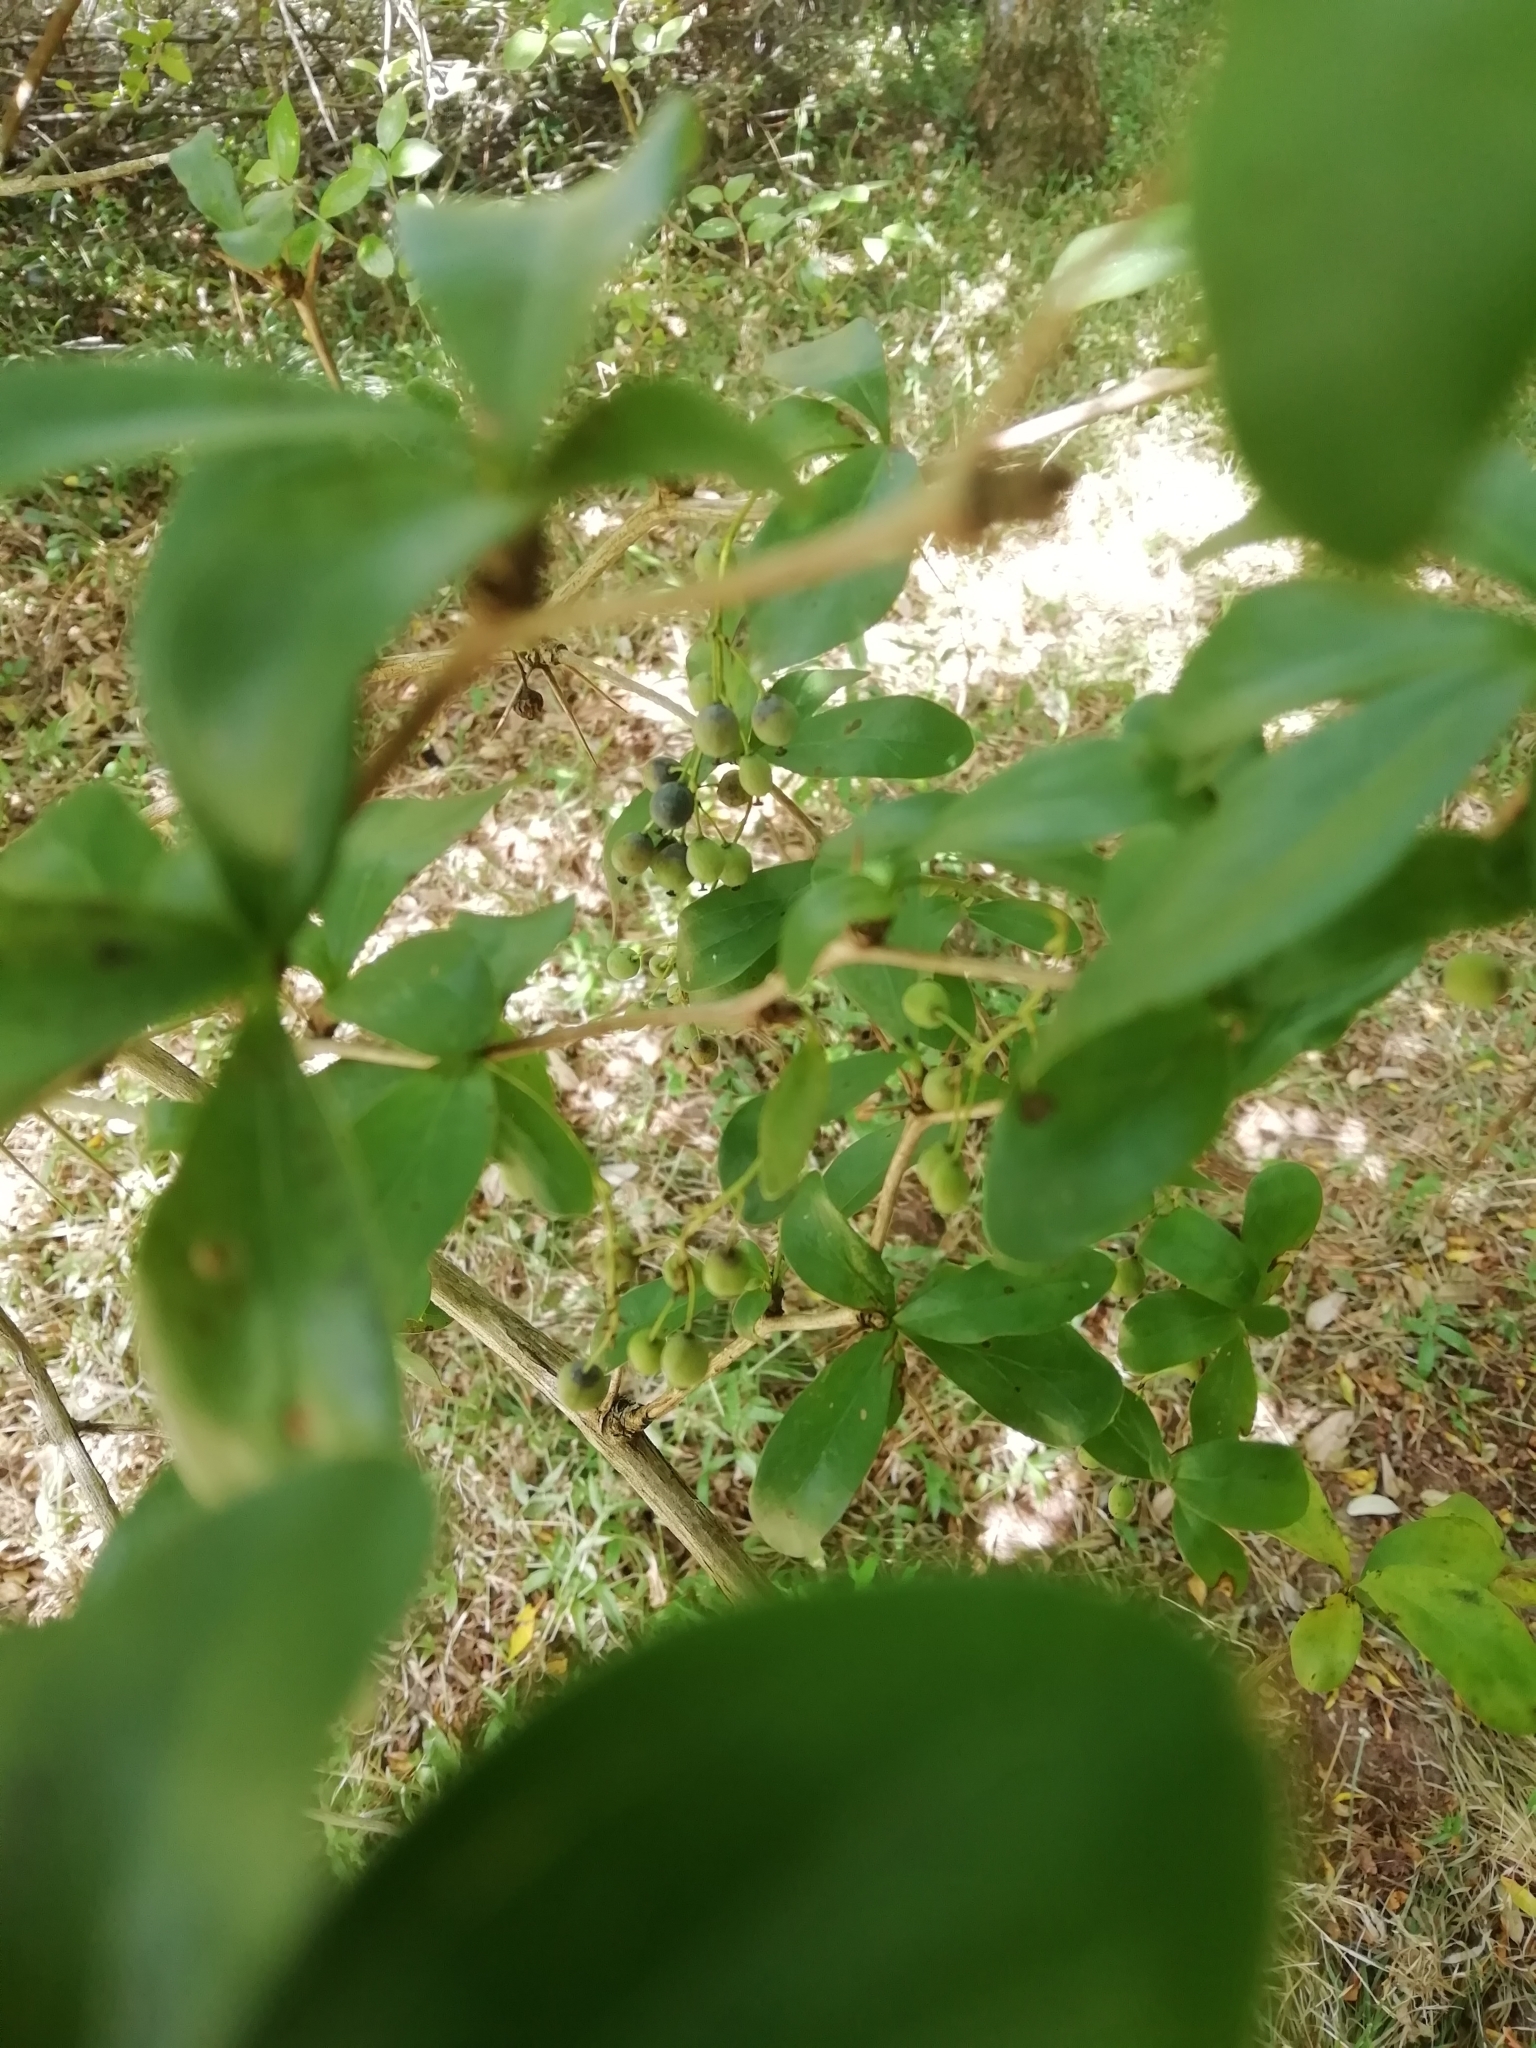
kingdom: Plantae
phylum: Tracheophyta
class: Magnoliopsida
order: Ranunculales
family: Berberidaceae
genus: Berberis
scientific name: Berberis laurina
